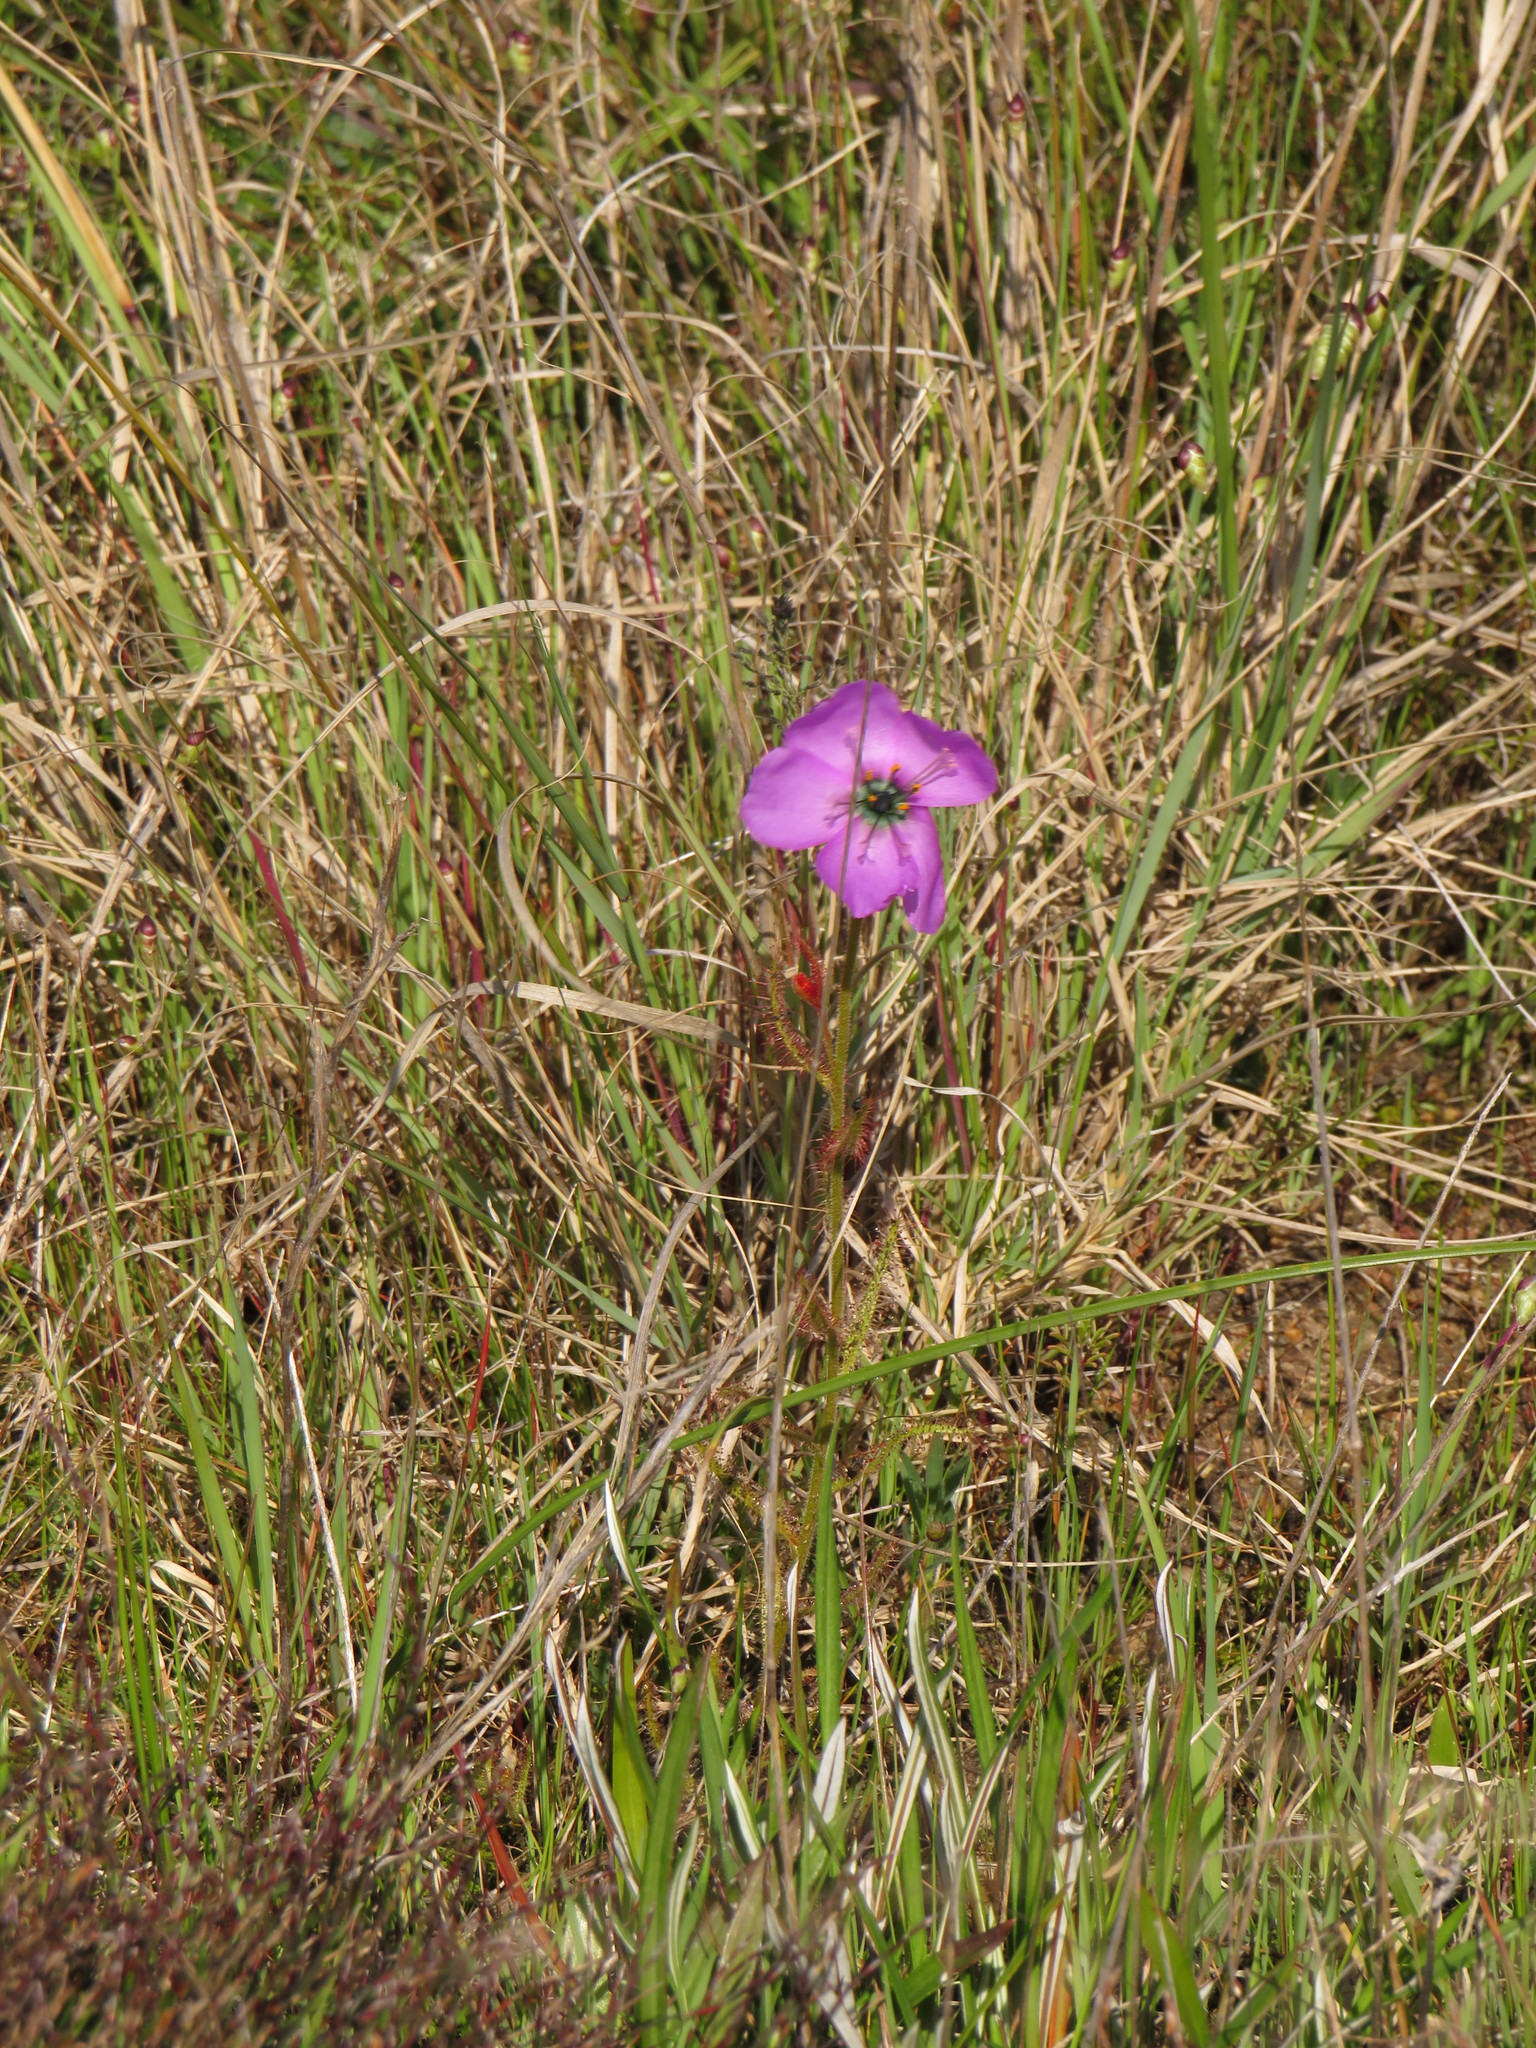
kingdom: Plantae
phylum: Tracheophyta
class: Magnoliopsida
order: Caryophyllales
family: Droseraceae
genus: Drosera
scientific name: Drosera cistiflora
